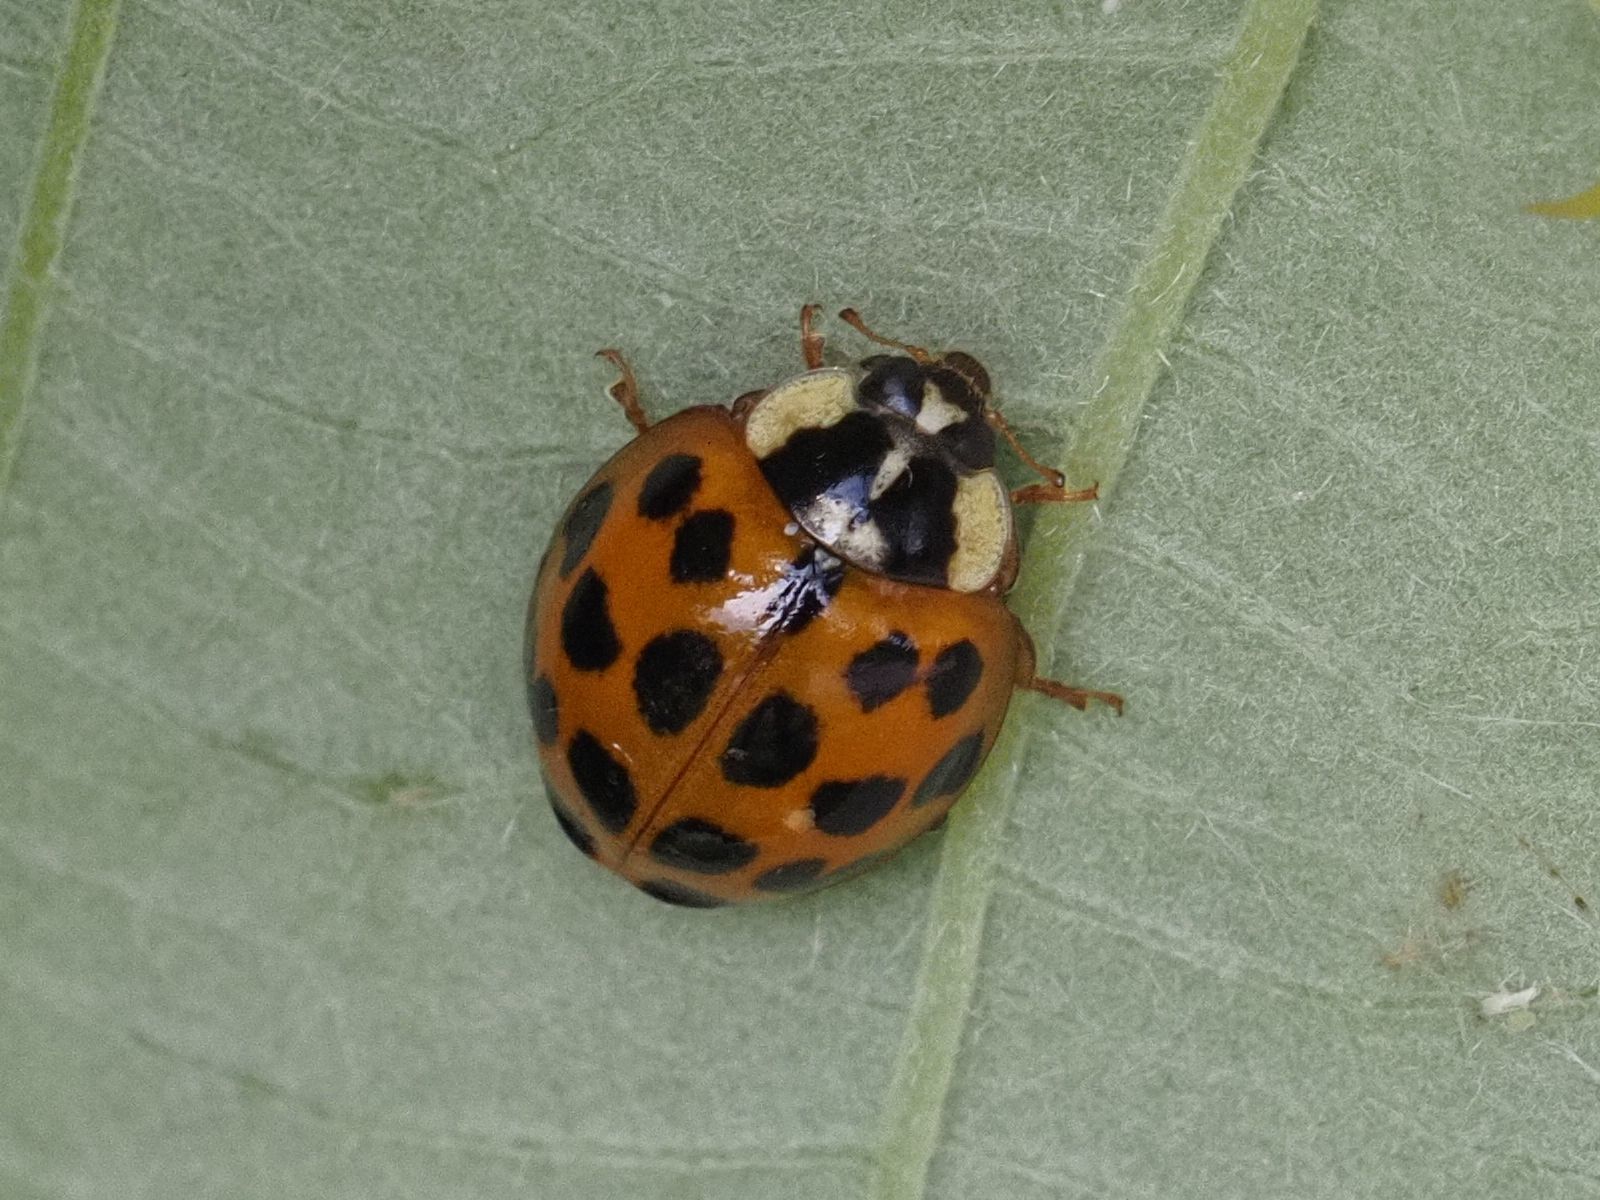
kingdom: Animalia
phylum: Arthropoda
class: Insecta
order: Coleoptera
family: Coccinellidae
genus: Harmonia
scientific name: Harmonia axyridis
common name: Harlequin ladybird
